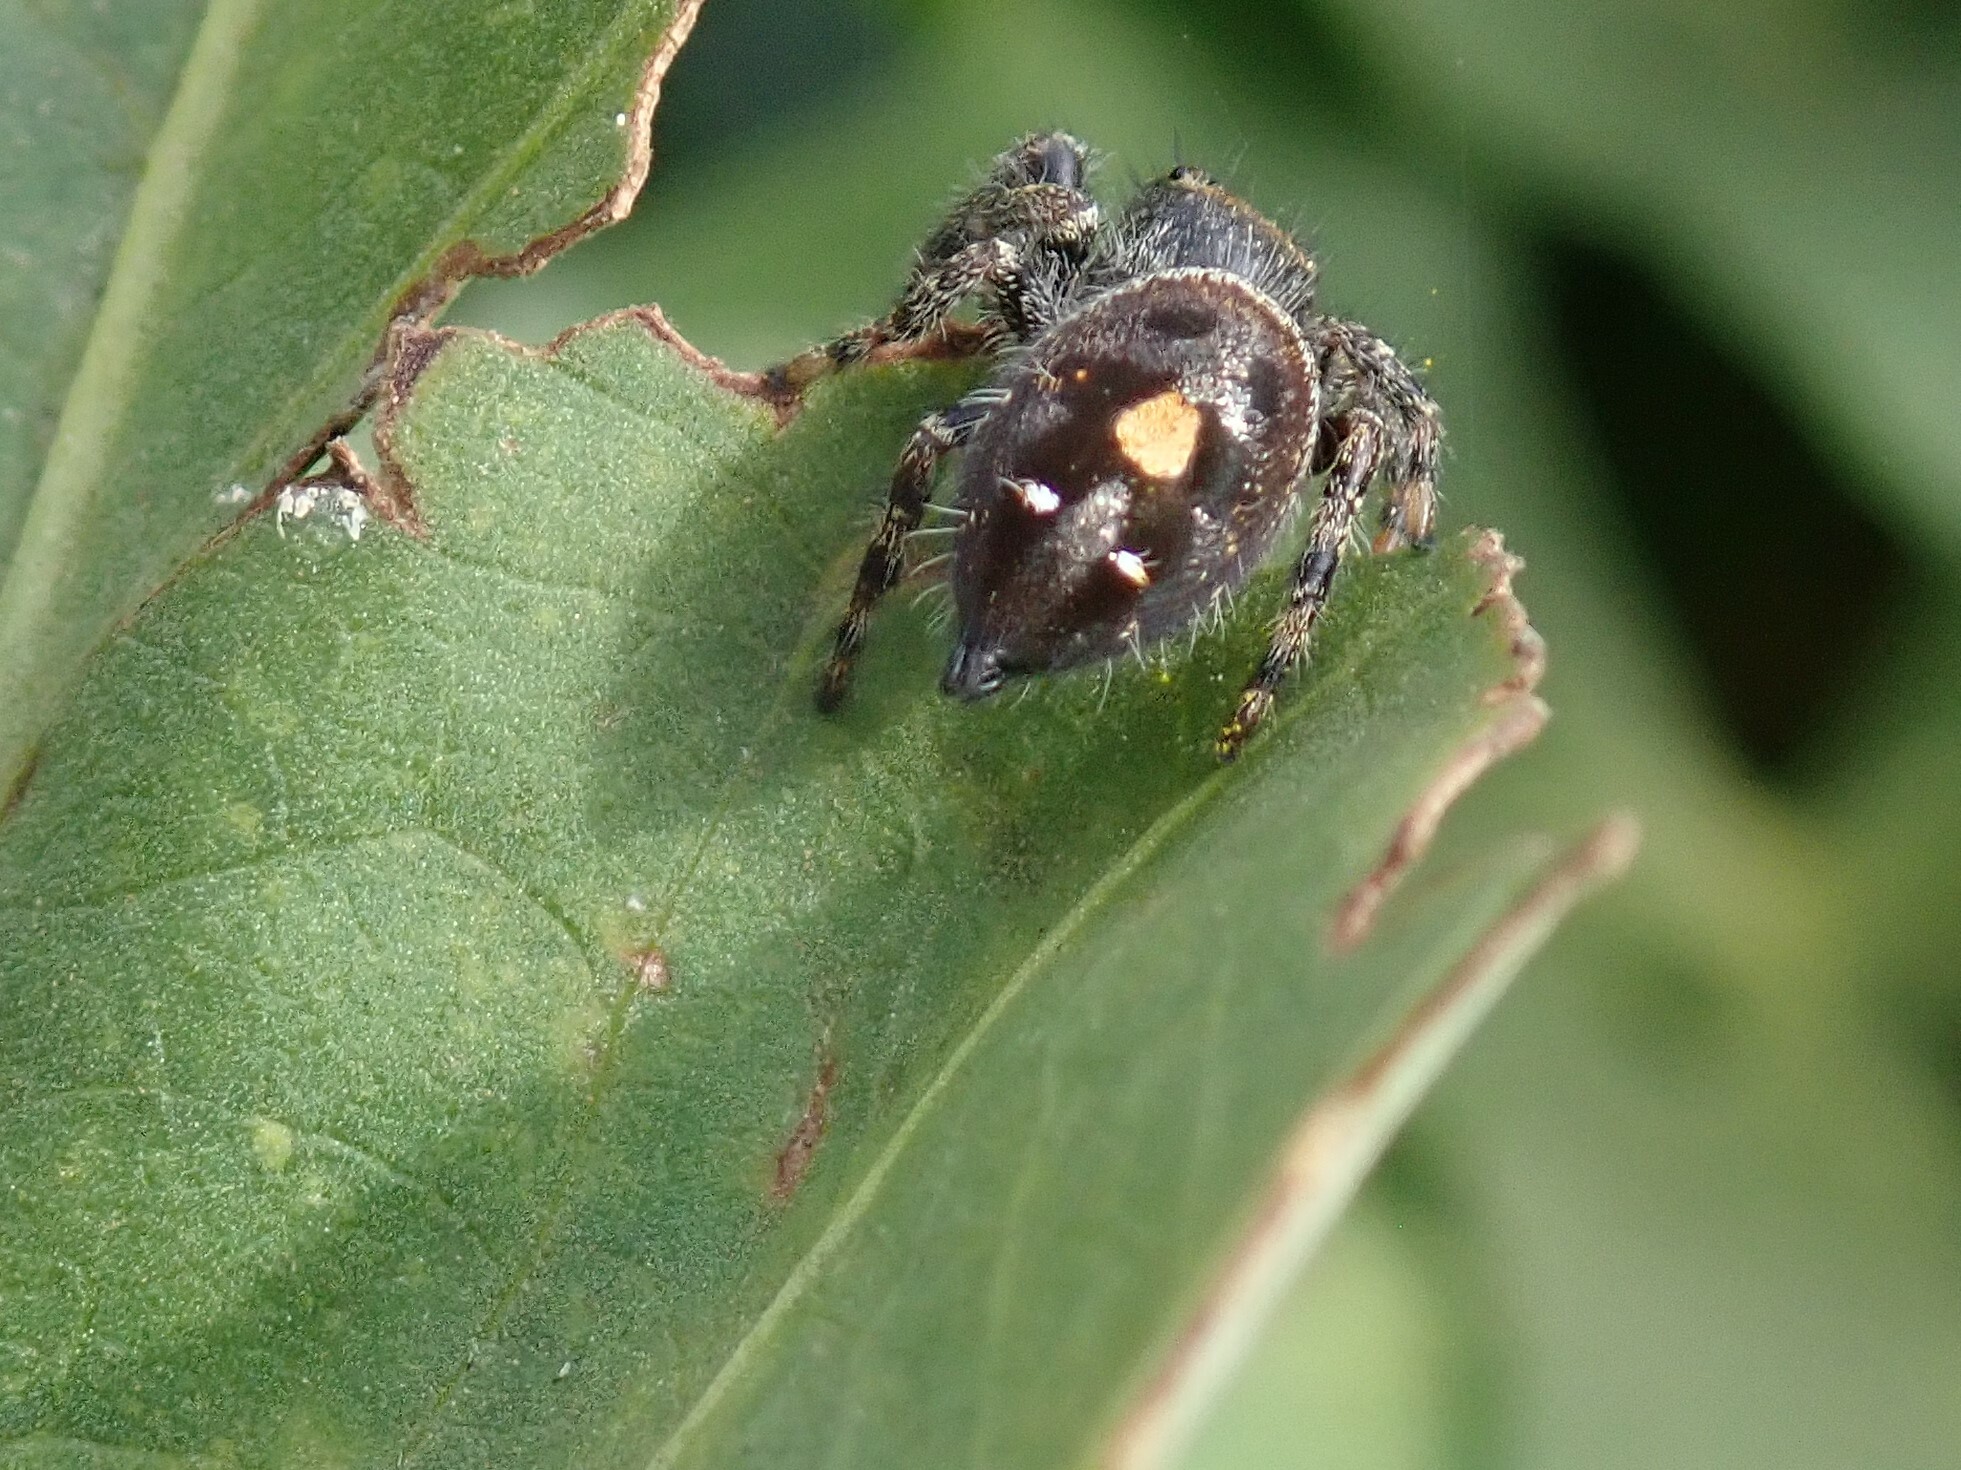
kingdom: Animalia
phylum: Arthropoda
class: Arachnida
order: Araneae
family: Salticidae
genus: Phidippus
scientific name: Phidippus audax
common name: Bold jumper
